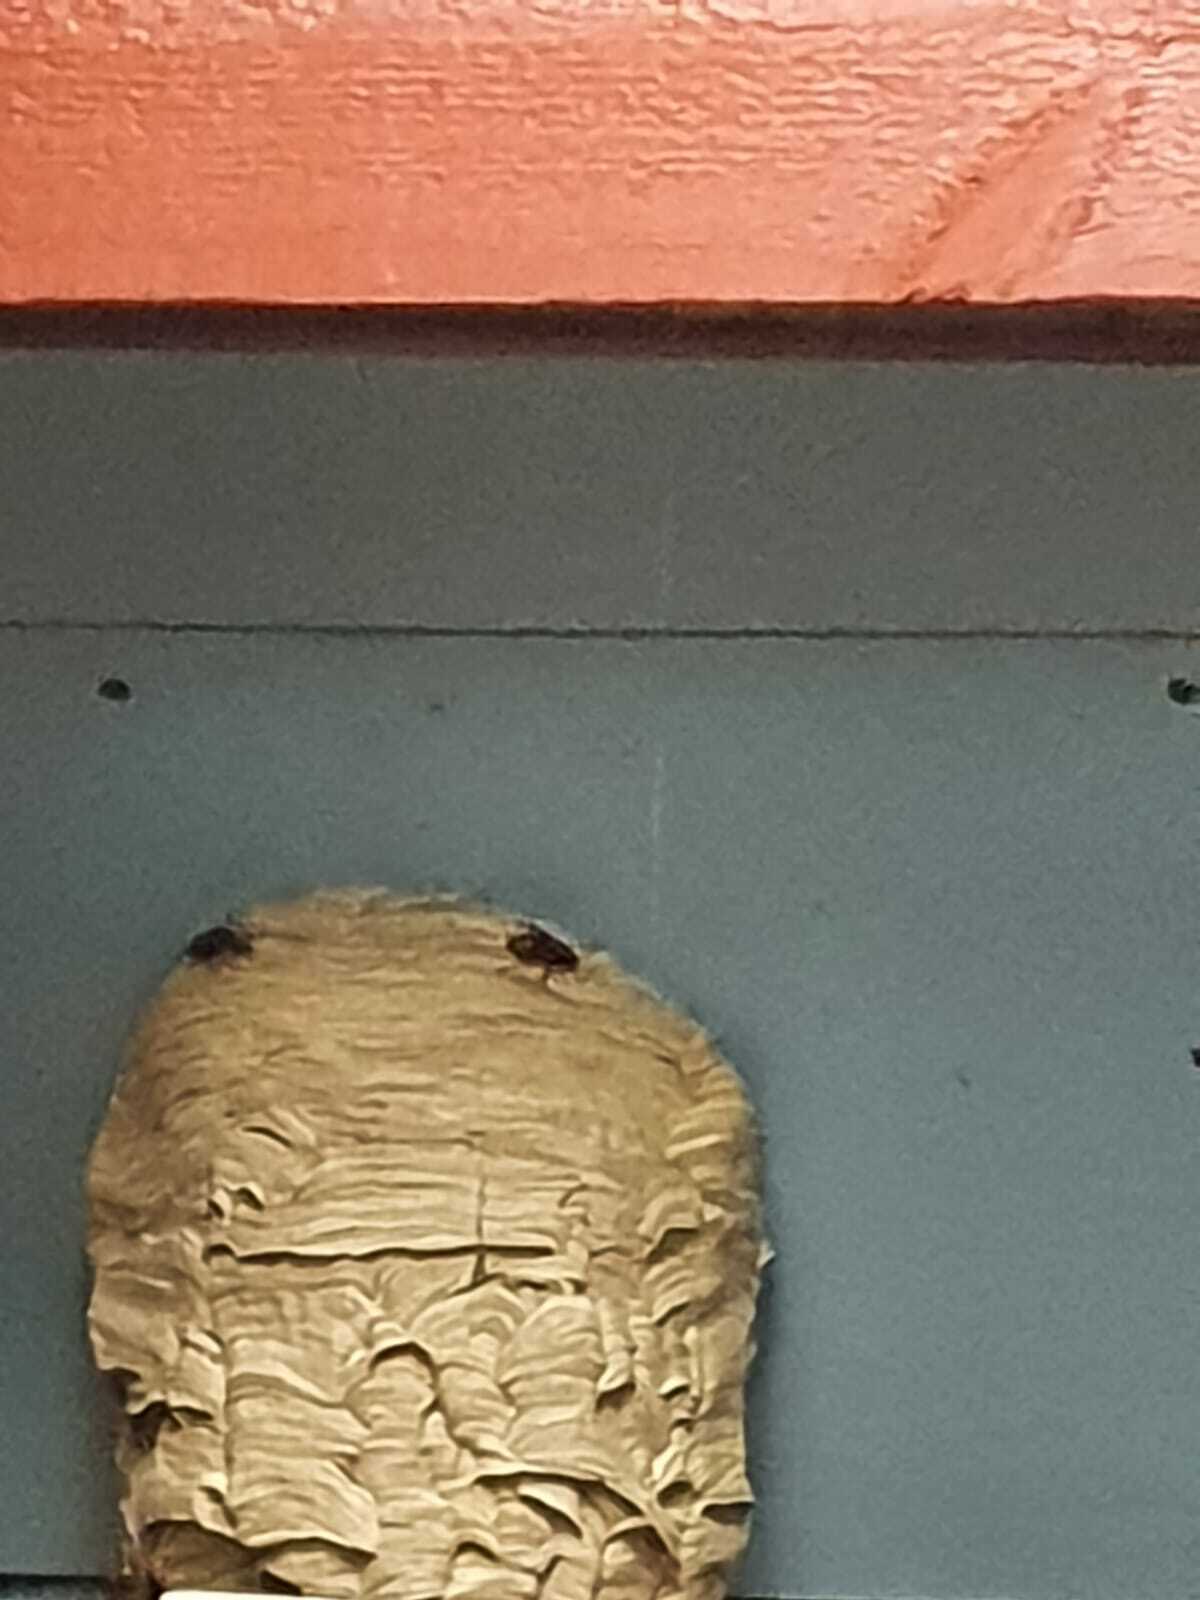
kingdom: Animalia
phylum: Arthropoda
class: Insecta
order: Hymenoptera
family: Vespidae
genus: Vespa
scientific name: Vespa crabro
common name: Hornet
